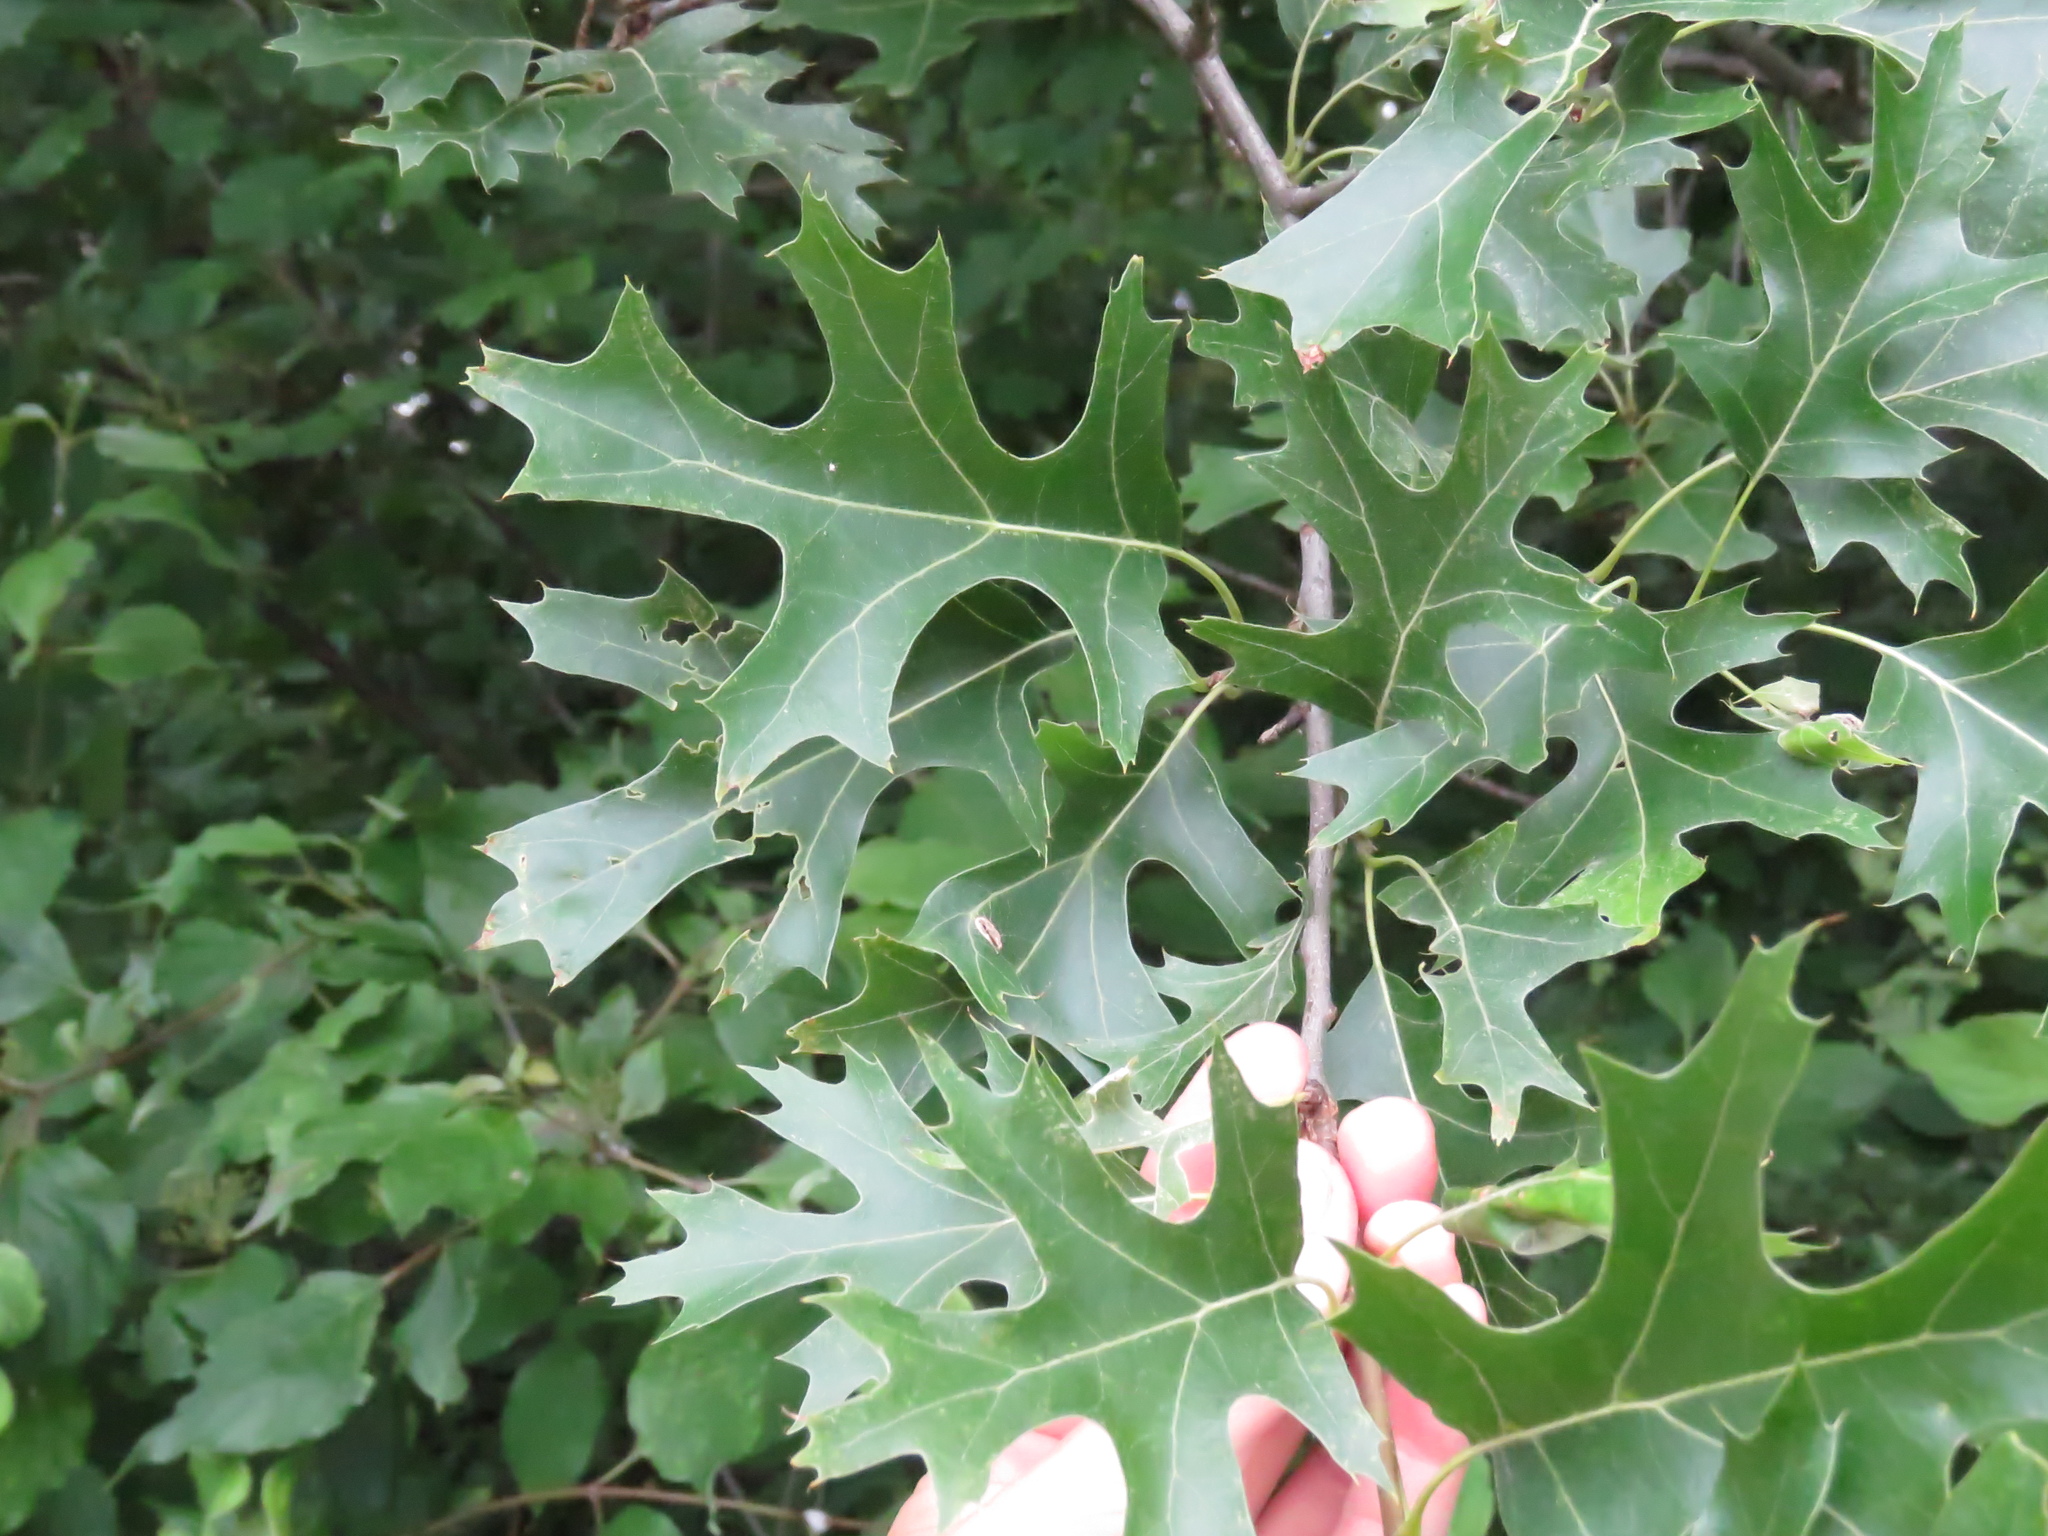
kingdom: Plantae
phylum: Tracheophyta
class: Magnoliopsida
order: Fagales
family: Fagaceae
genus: Quercus
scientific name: Quercus ellipsoidalis
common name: Hill's oak
